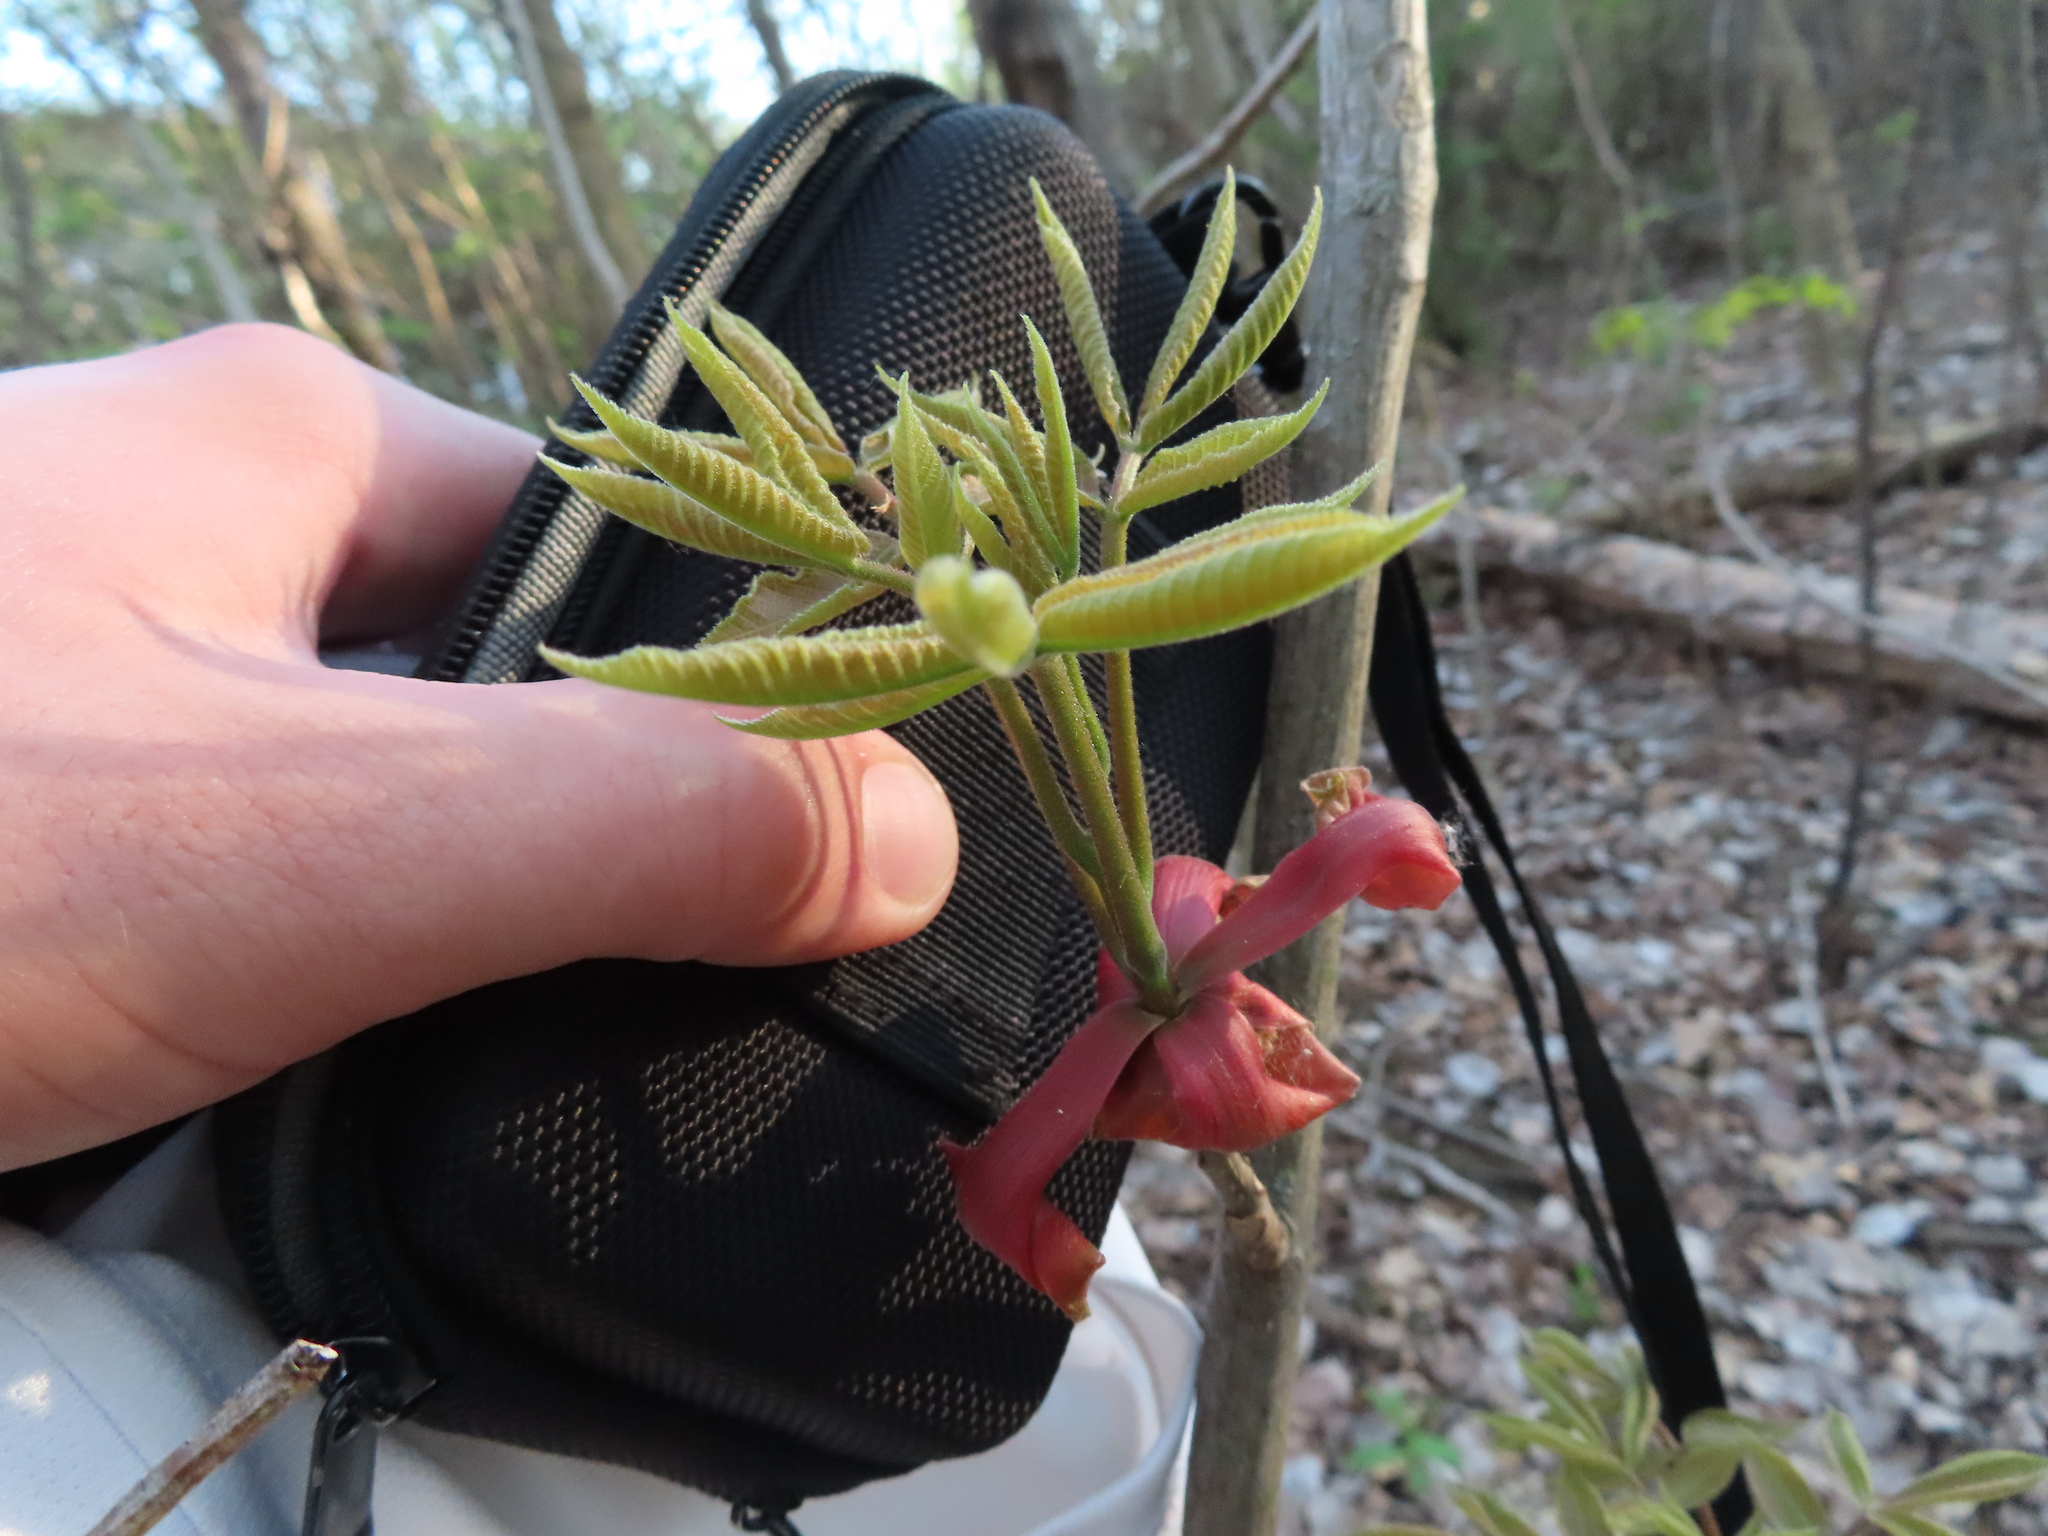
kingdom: Plantae
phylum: Tracheophyta
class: Magnoliopsida
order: Fagales
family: Juglandaceae
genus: Carya
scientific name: Carya ovata
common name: Shagbark hickory
